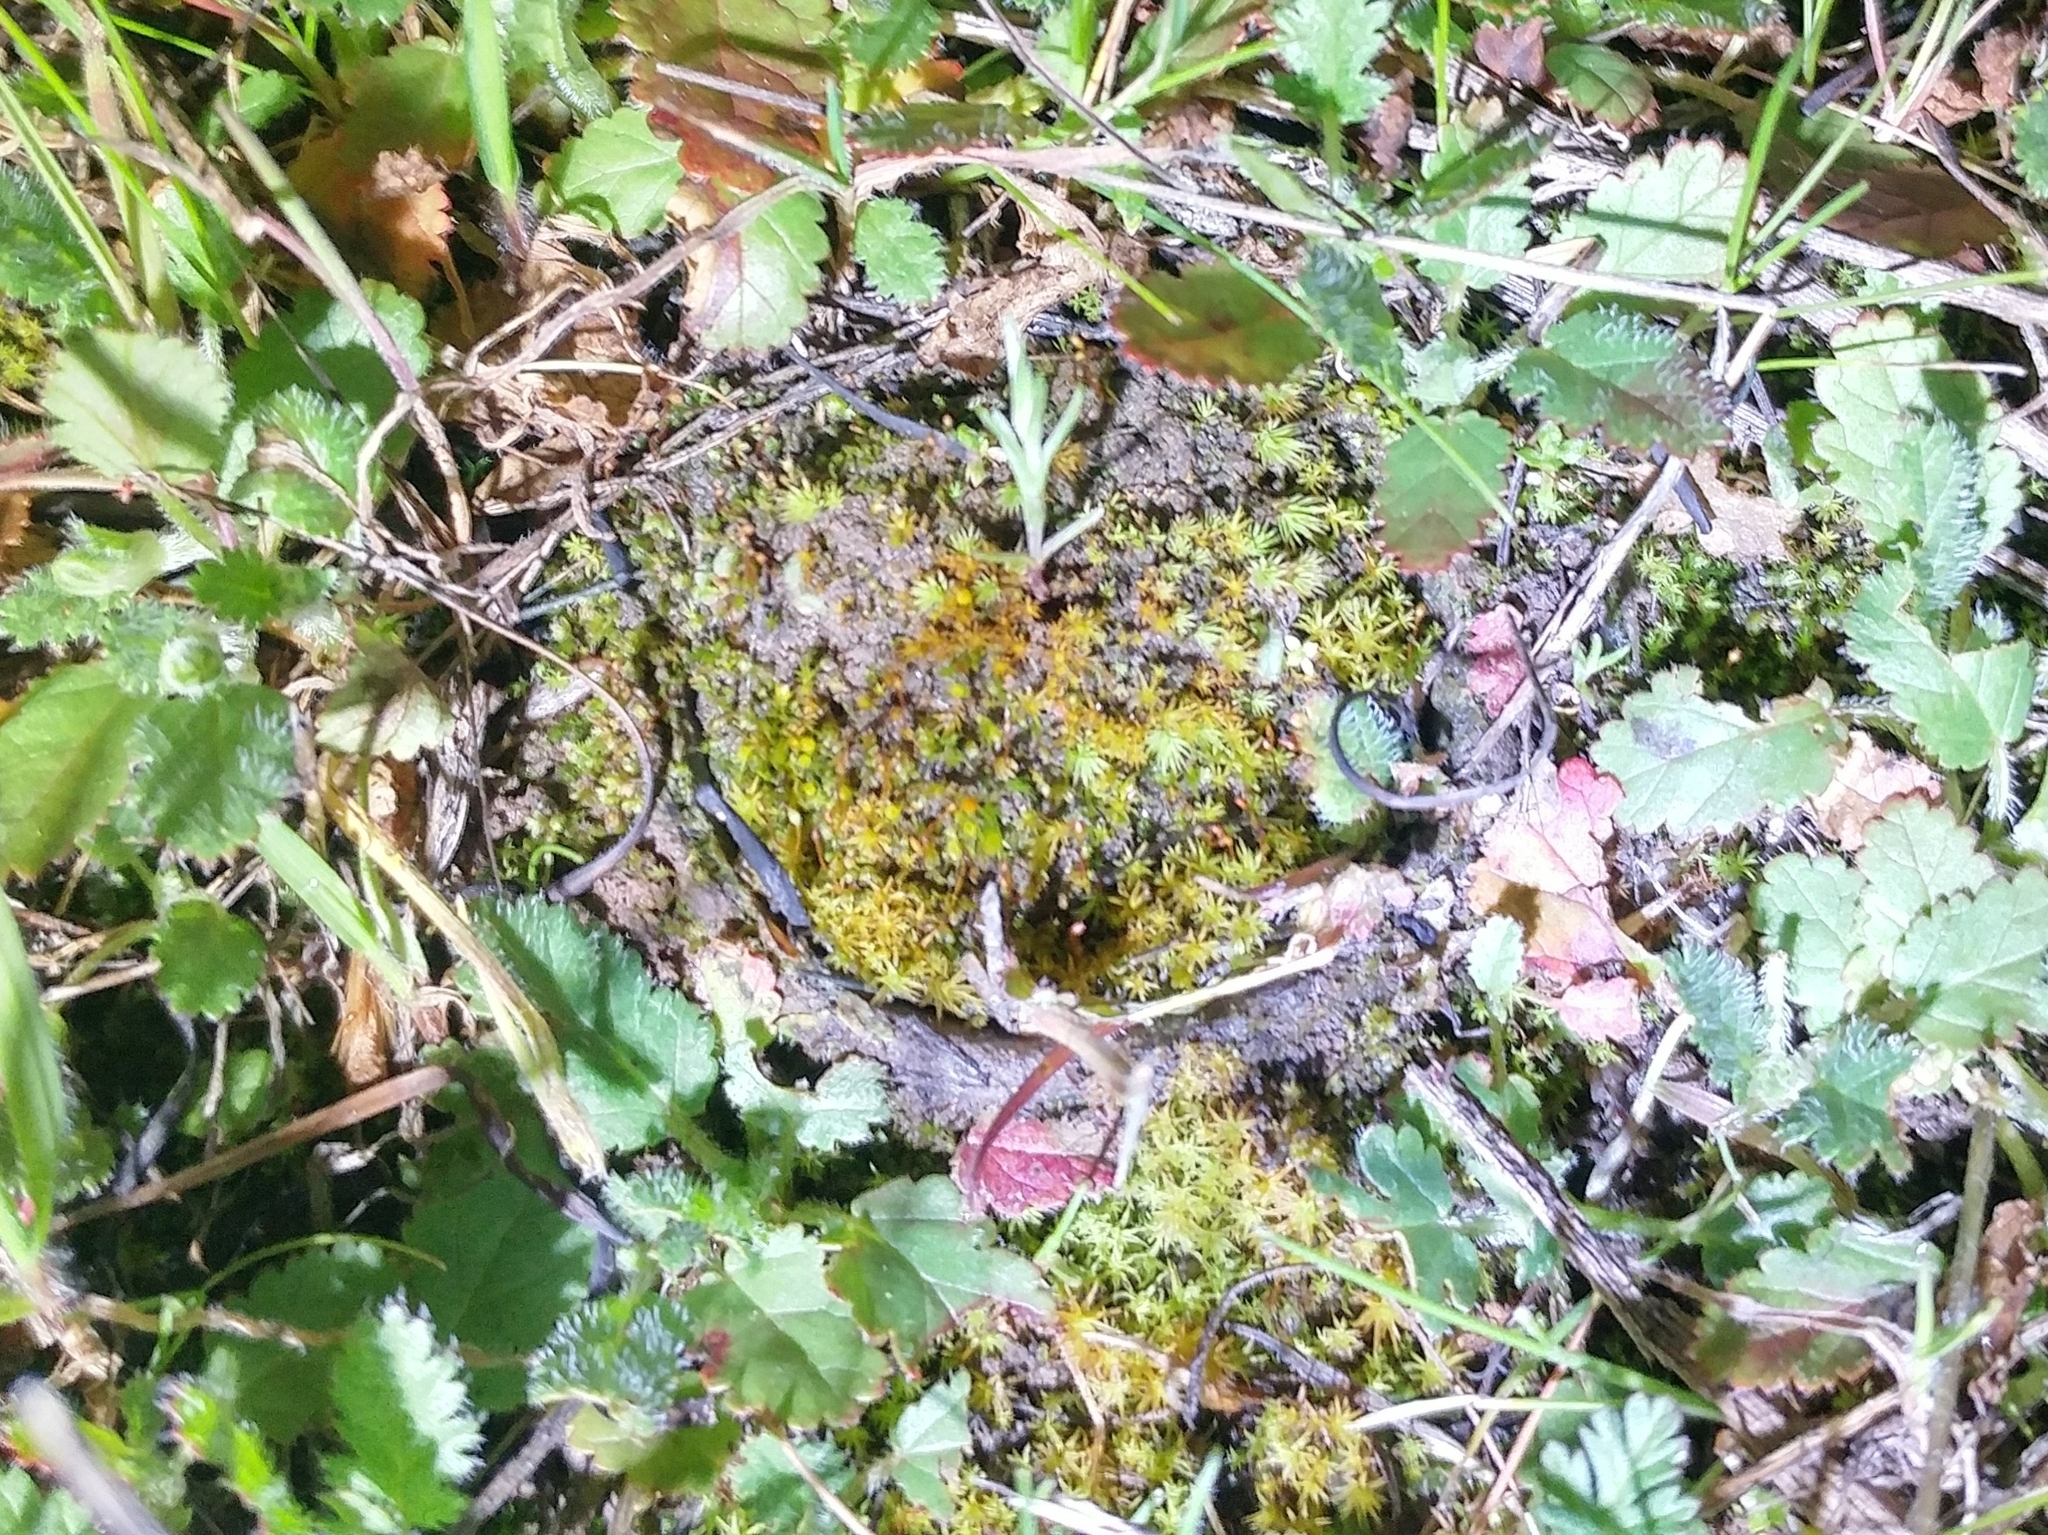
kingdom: Animalia
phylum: Arthropoda
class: Arachnida
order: Araneae
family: Halonoproctidae
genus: Bothriocyrtum
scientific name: Bothriocyrtum californicum
